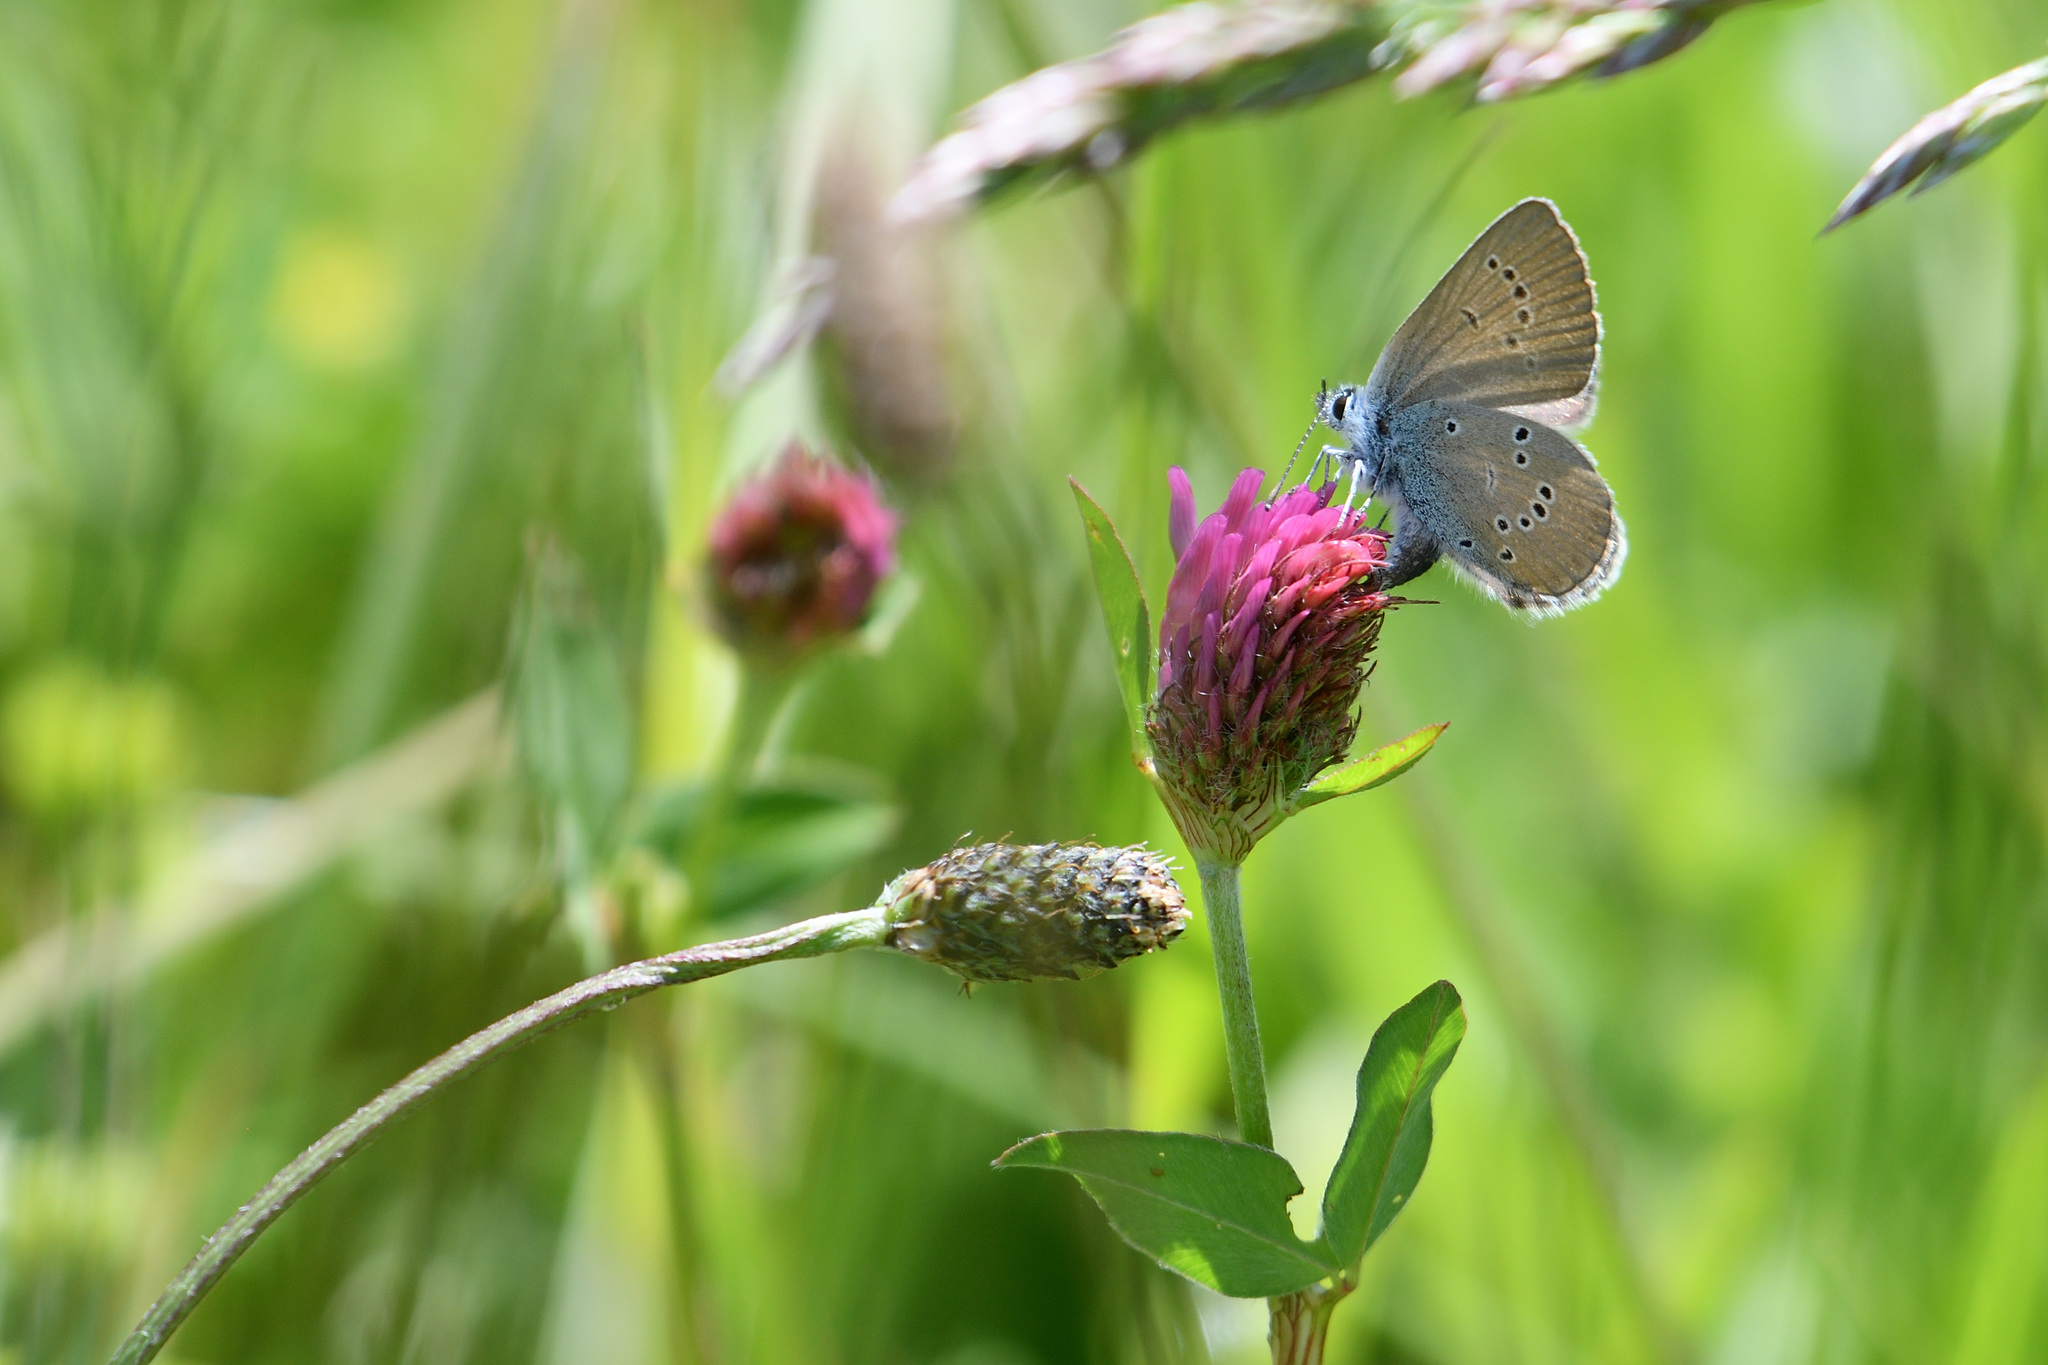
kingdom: Animalia
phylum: Arthropoda
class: Insecta
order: Lepidoptera
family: Lycaenidae
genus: Cyaniris
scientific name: Cyaniris semiargus
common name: Mazarine blue
